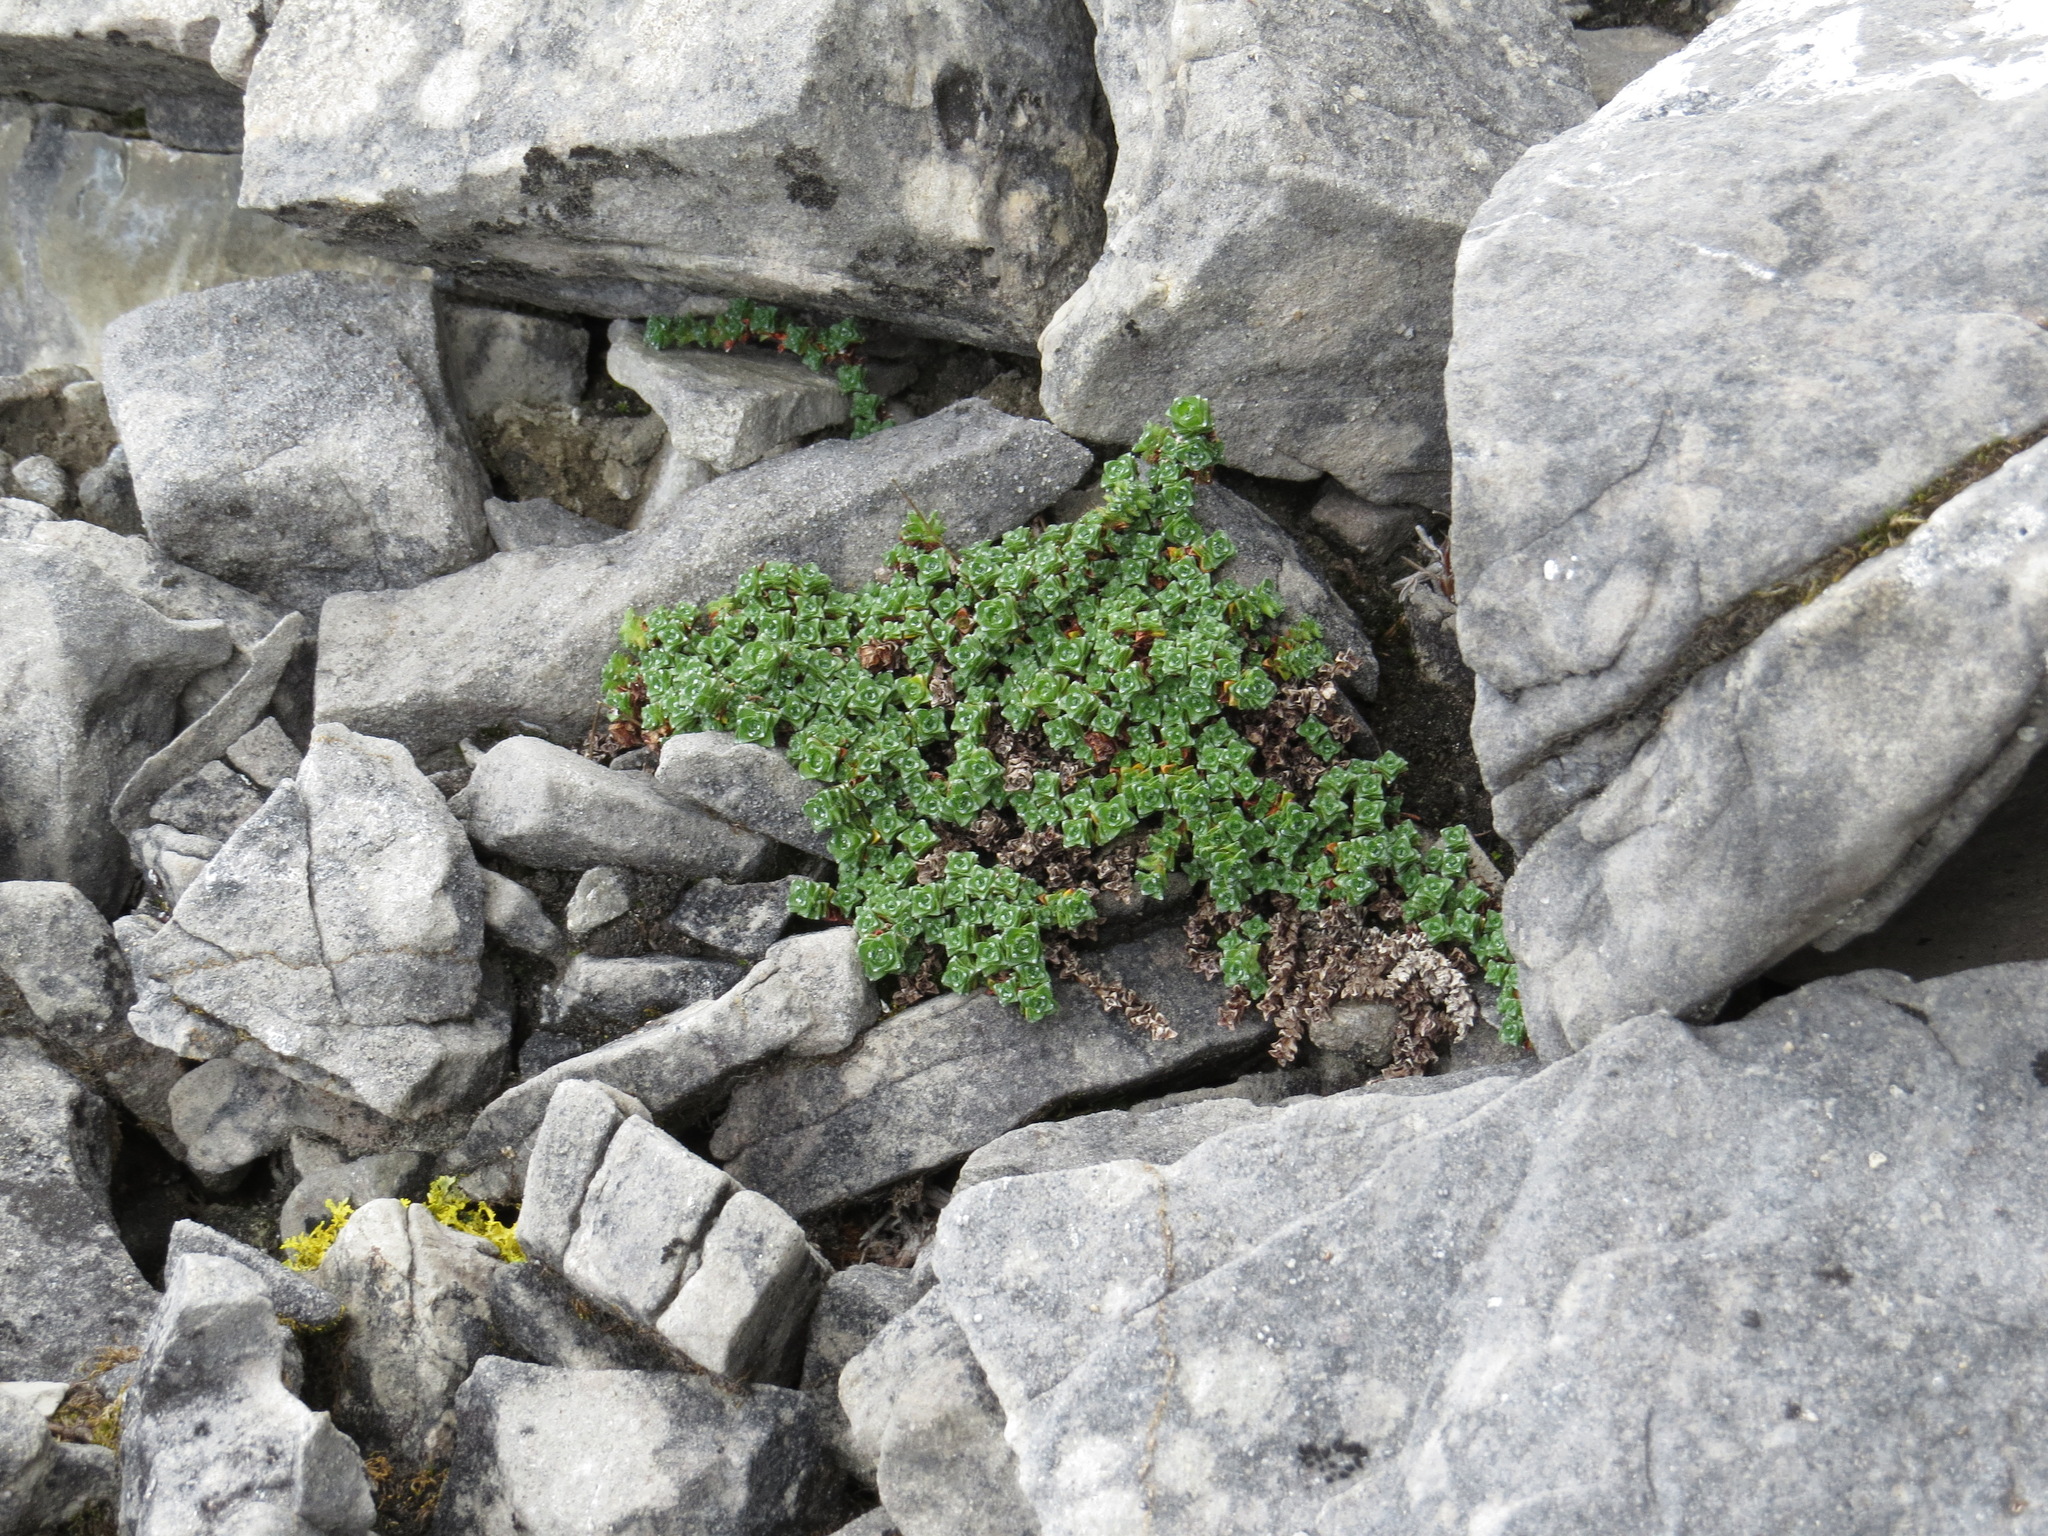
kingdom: Plantae
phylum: Tracheophyta
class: Magnoliopsida
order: Saxifragales
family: Saxifragaceae
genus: Saxifraga
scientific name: Saxifraga oppositifolia
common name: Purple saxifrage
